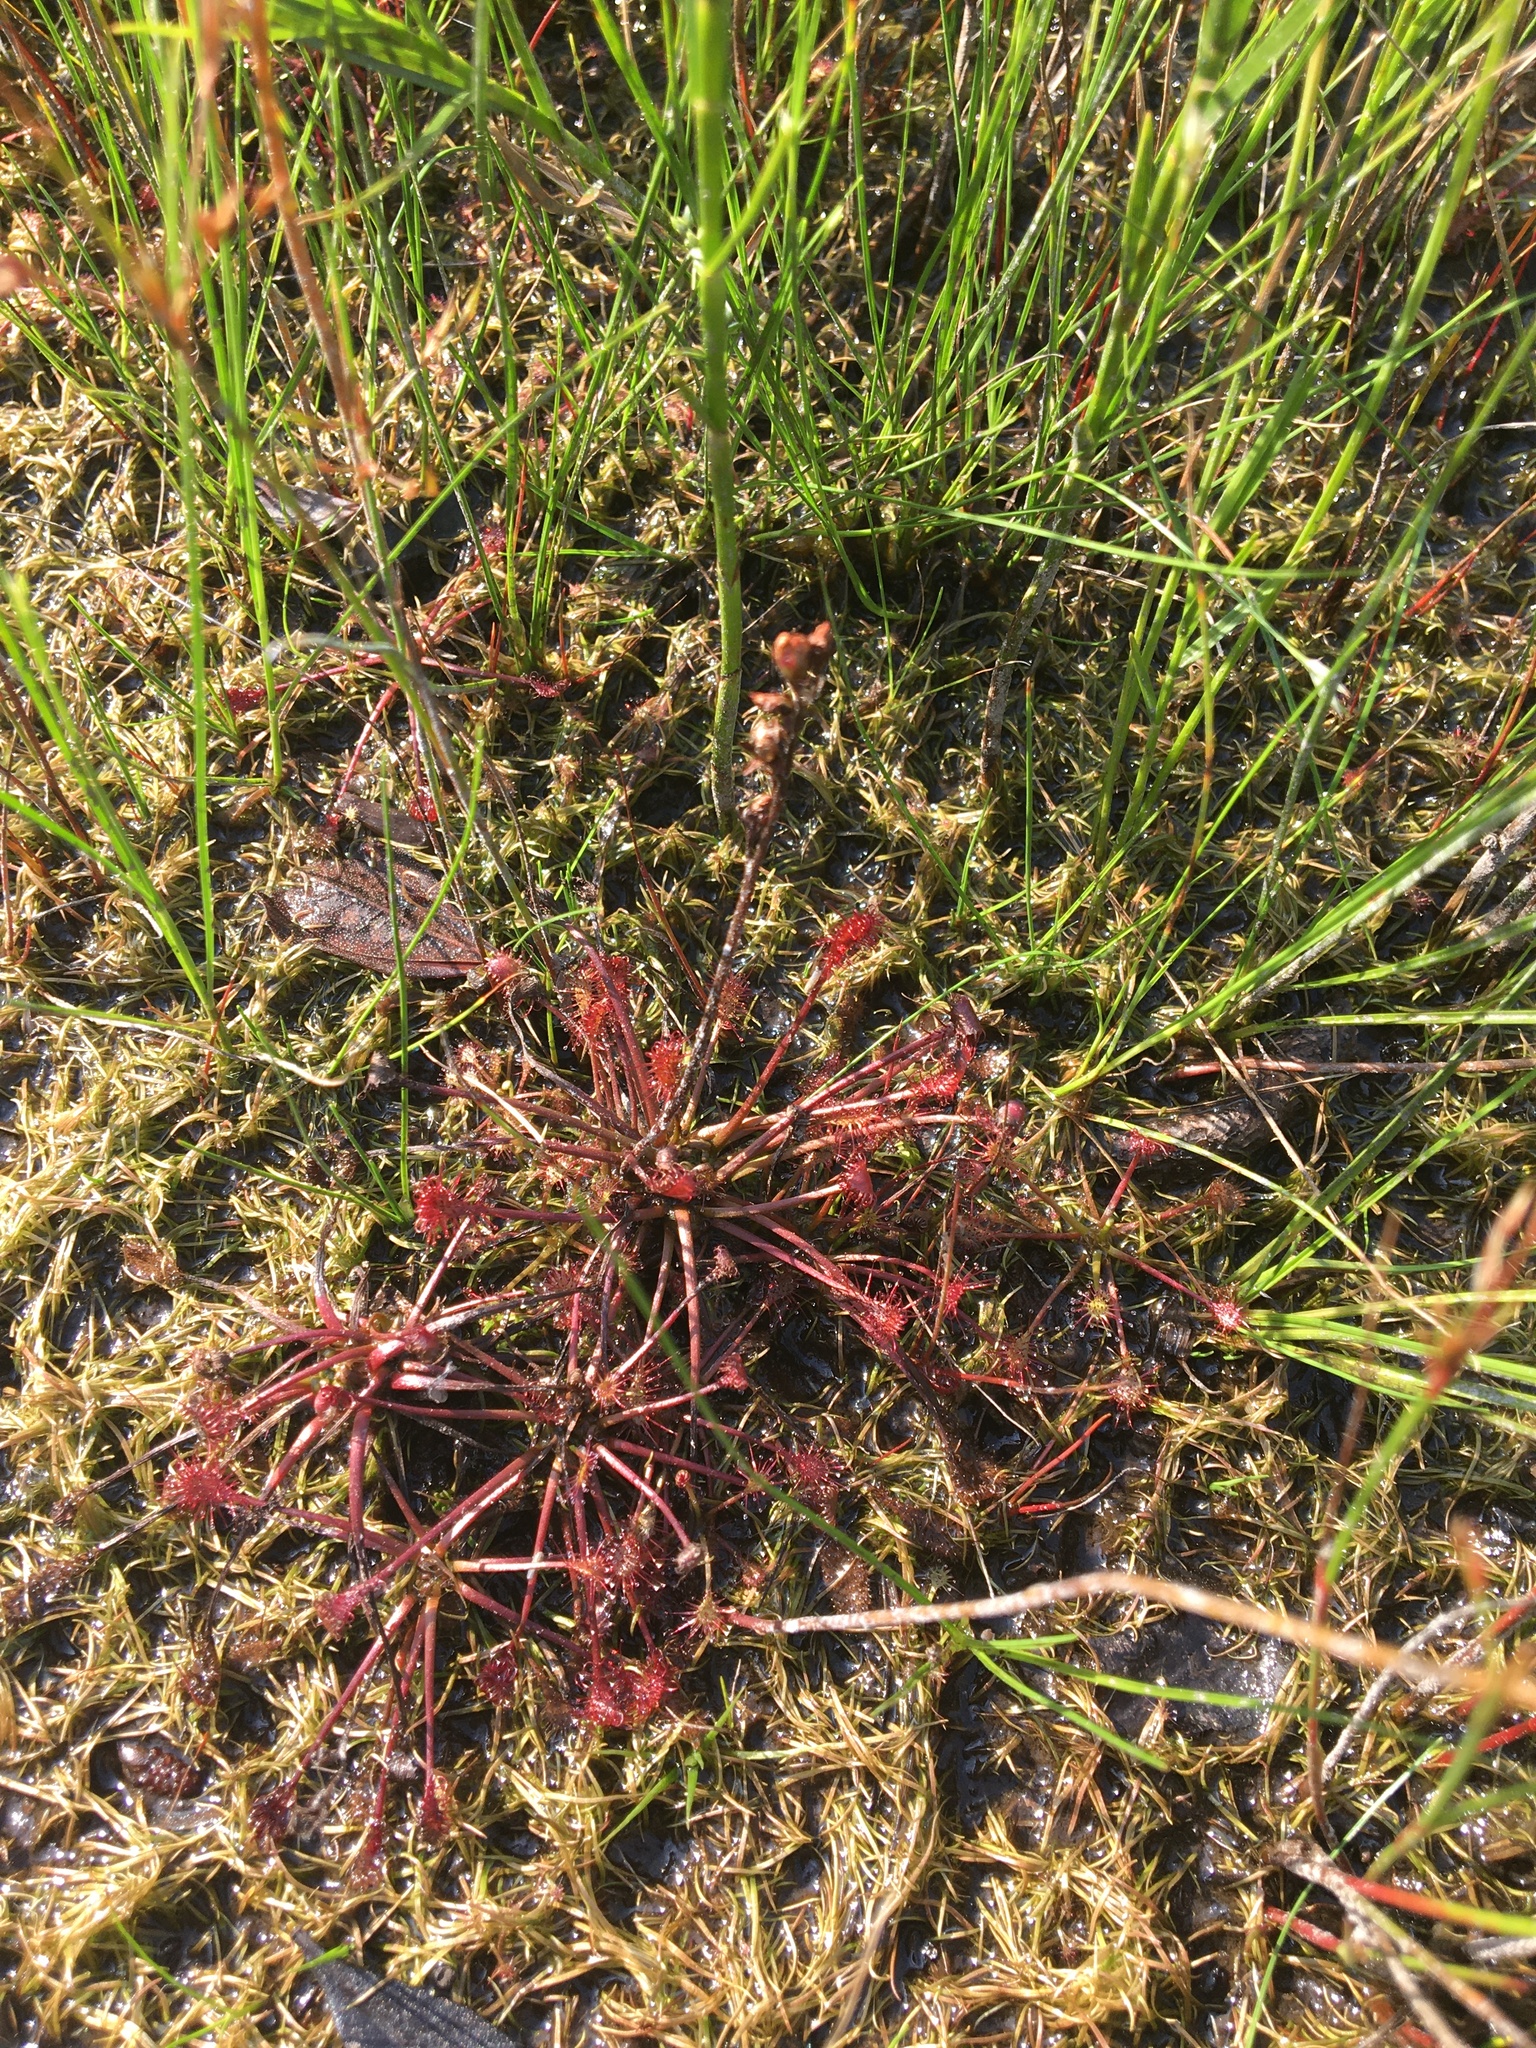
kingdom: Plantae
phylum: Tracheophyta
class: Magnoliopsida
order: Caryophyllales
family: Droseraceae
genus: Drosera
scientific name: Drosera intermedia
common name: Oblong-leaved sundew
